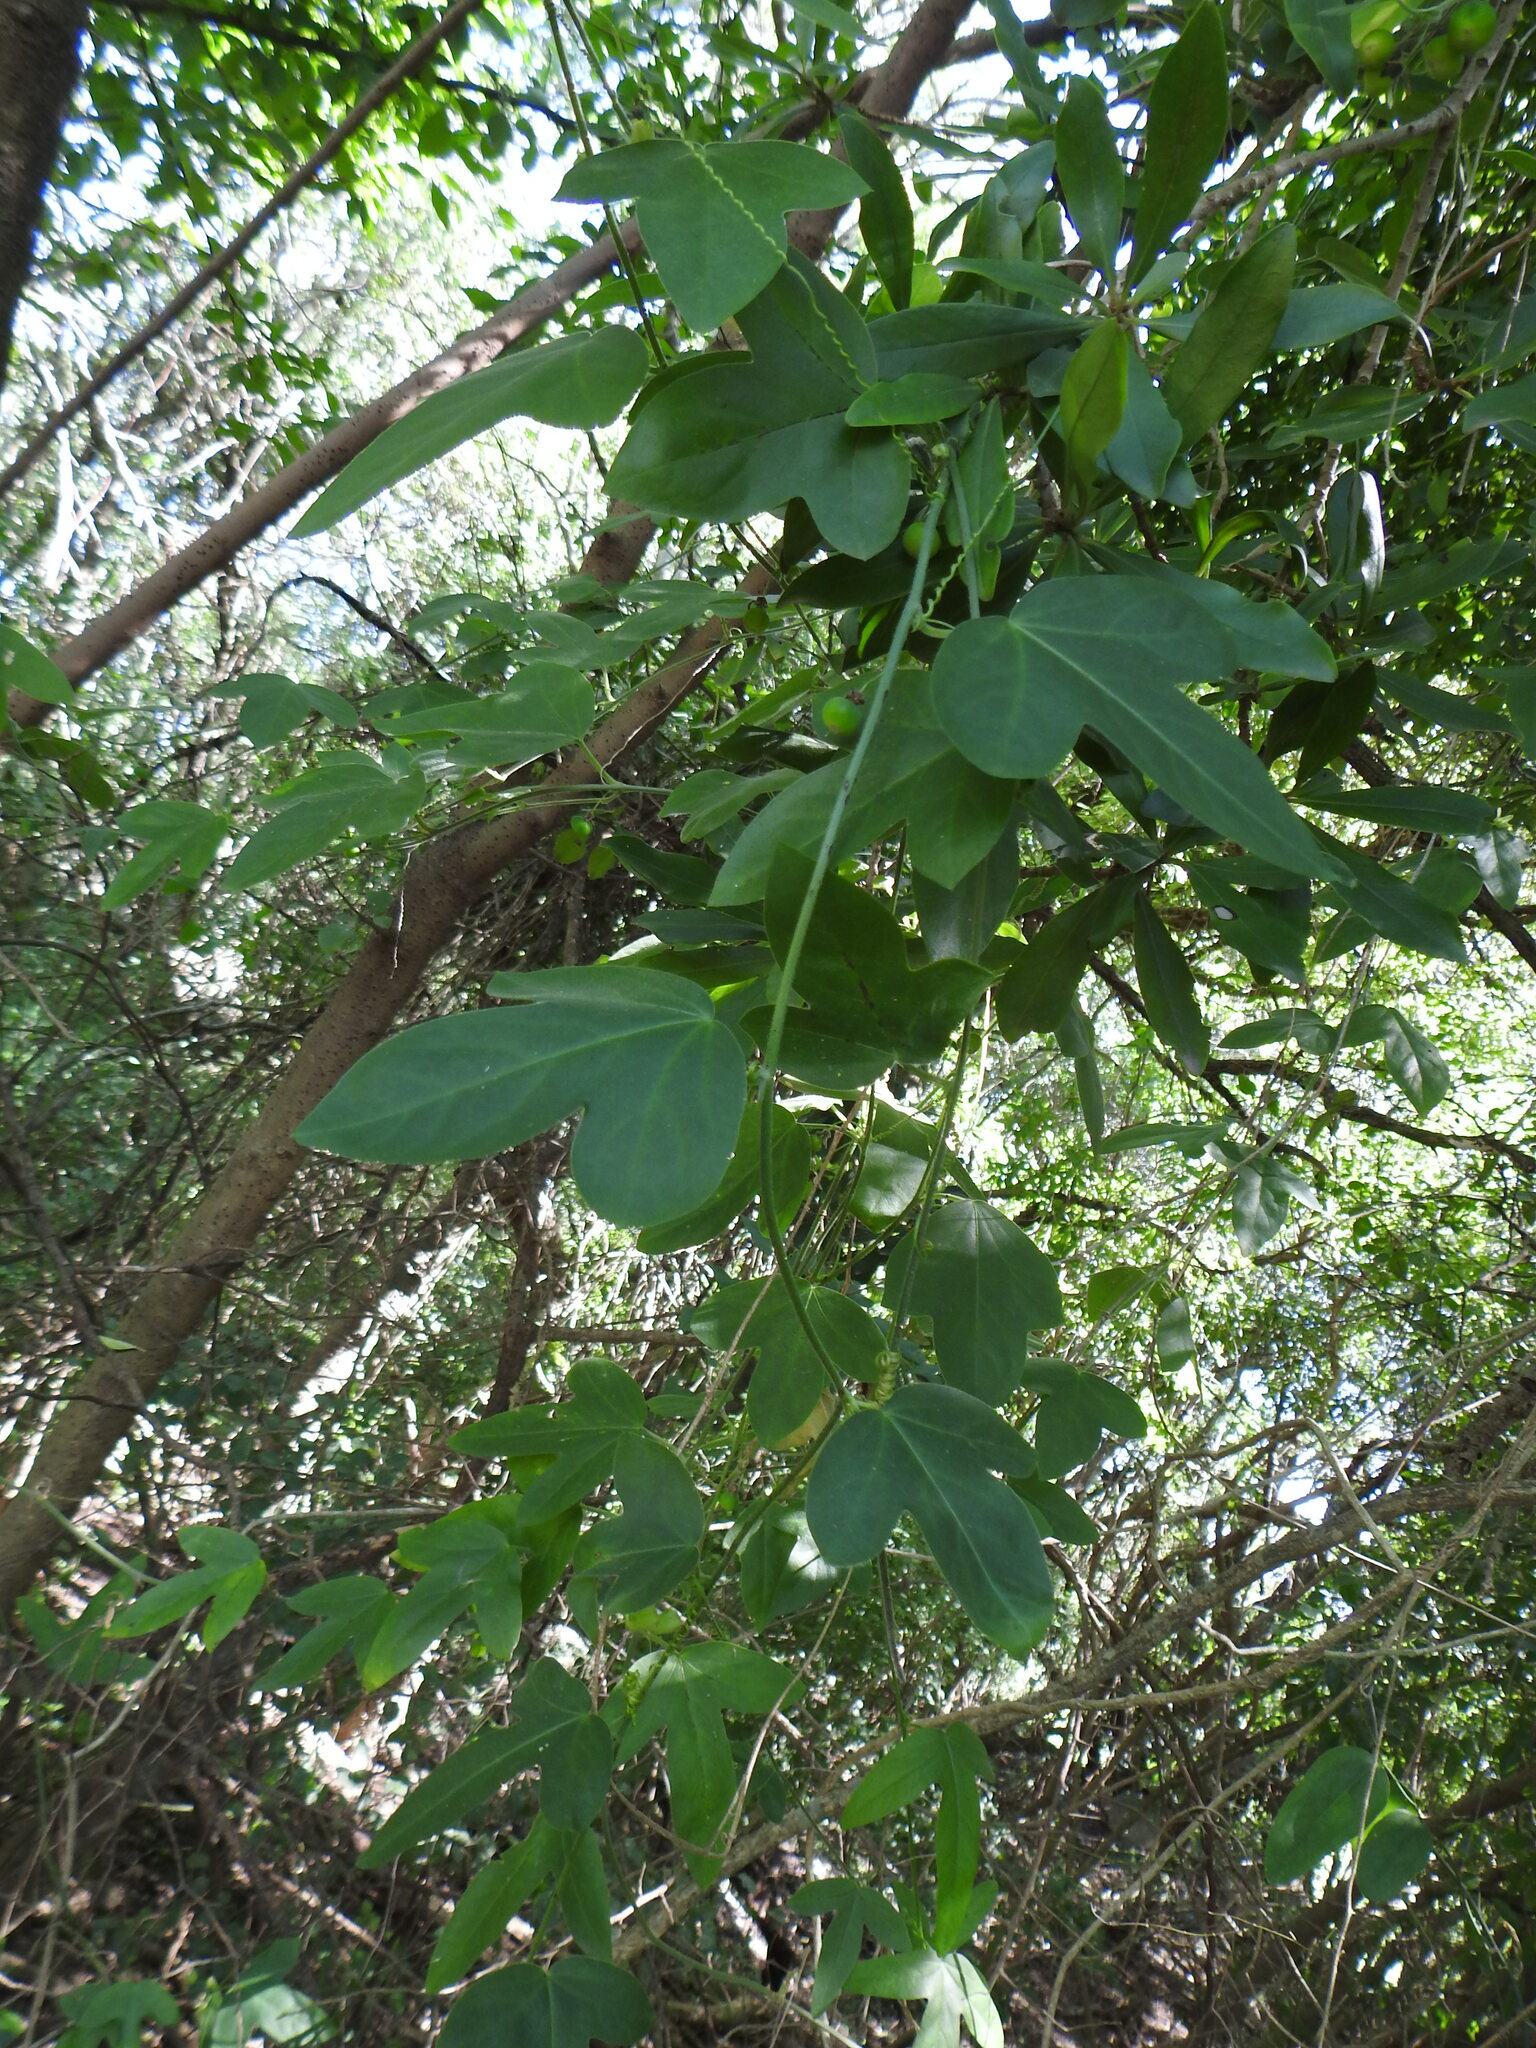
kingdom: Plantae
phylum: Tracheophyta
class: Magnoliopsida
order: Malpighiales
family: Passifloraceae
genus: Passiflora
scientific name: Passiflora suberosa
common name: Wild passionfruit
